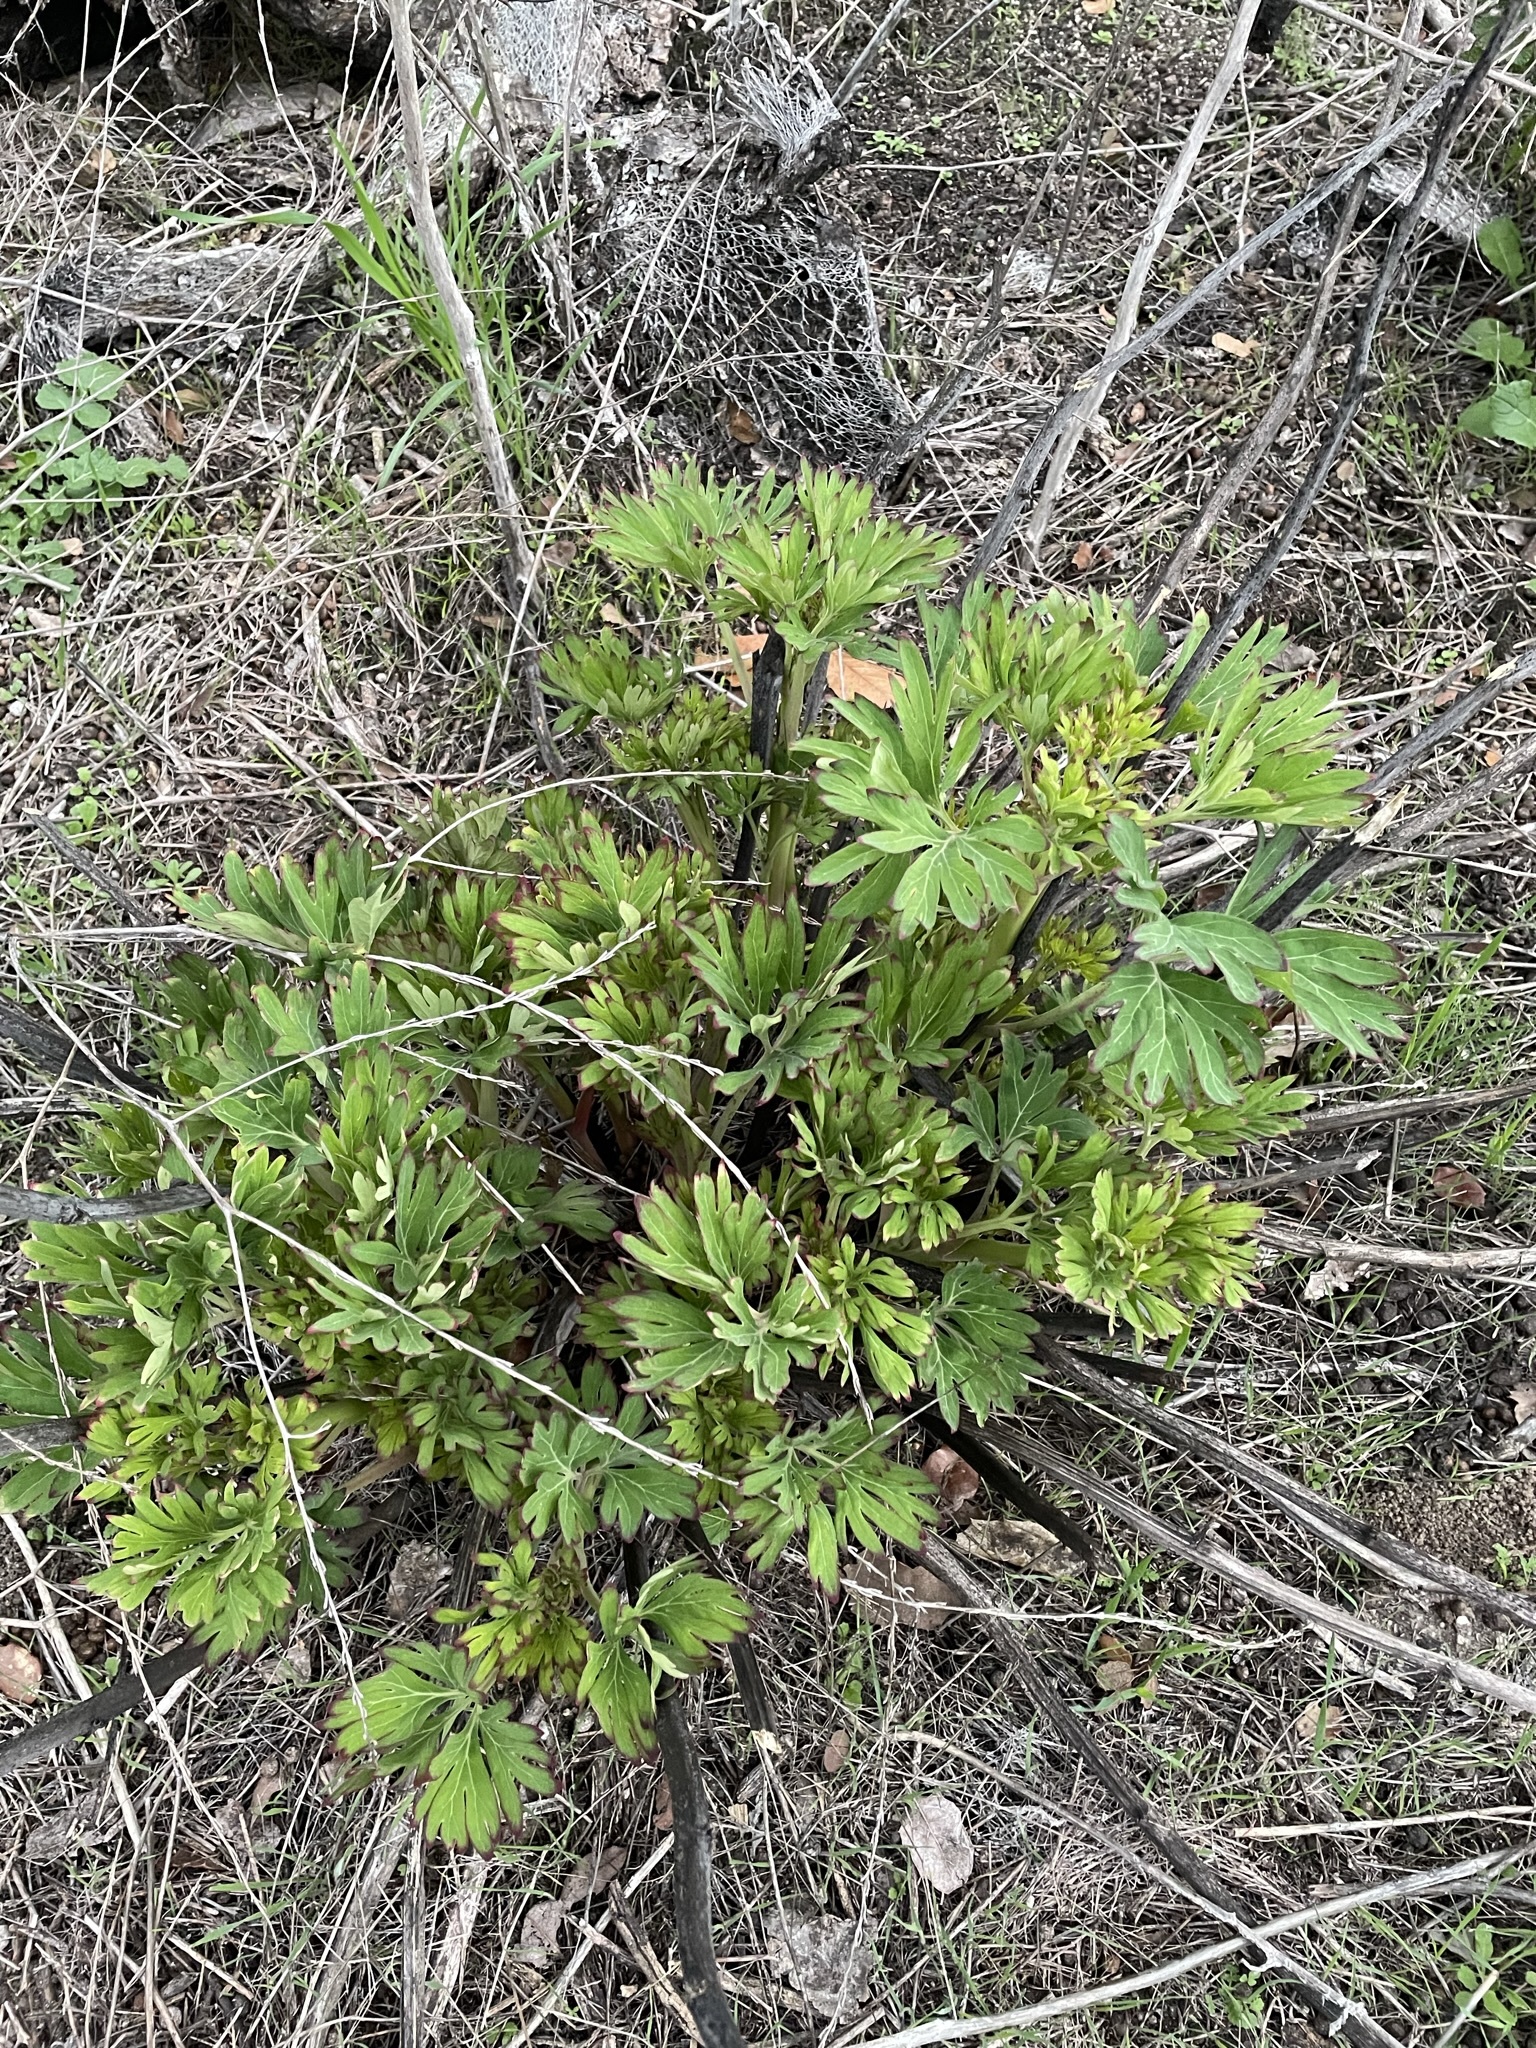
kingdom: Plantae
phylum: Tracheophyta
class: Magnoliopsida
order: Saxifragales
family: Paeoniaceae
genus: Paeonia
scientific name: Paeonia californica
